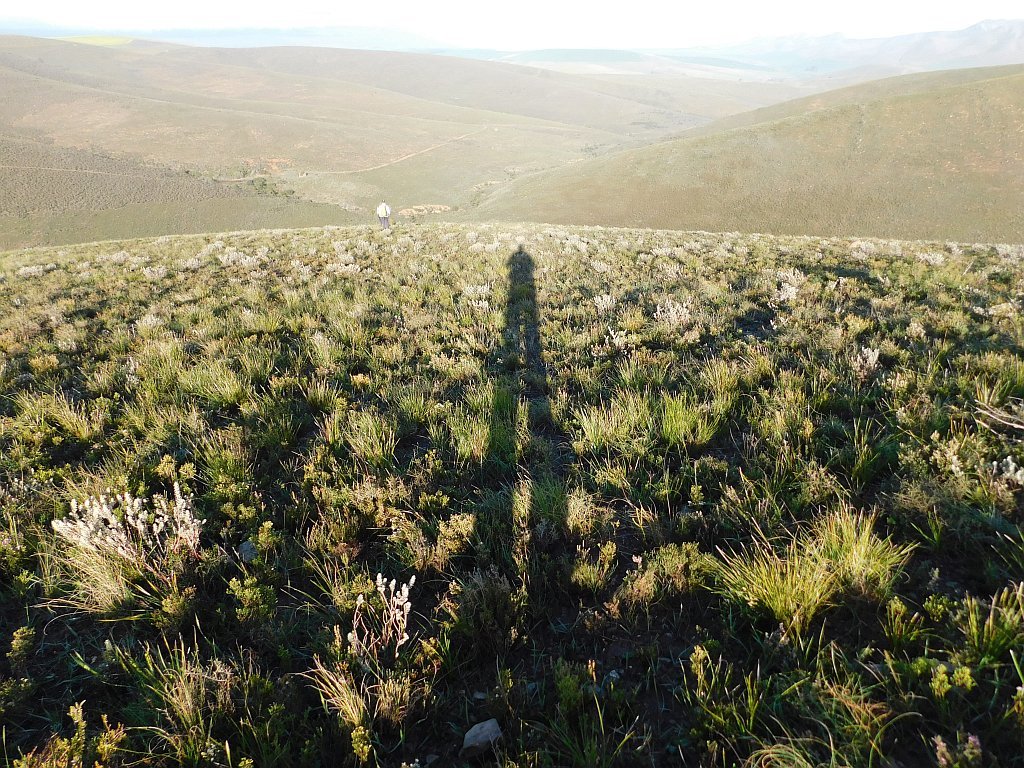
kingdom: Plantae
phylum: Tracheophyta
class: Magnoliopsida
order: Asterales
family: Asteraceae
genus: Eriocephalus
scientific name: Eriocephalus africanus
